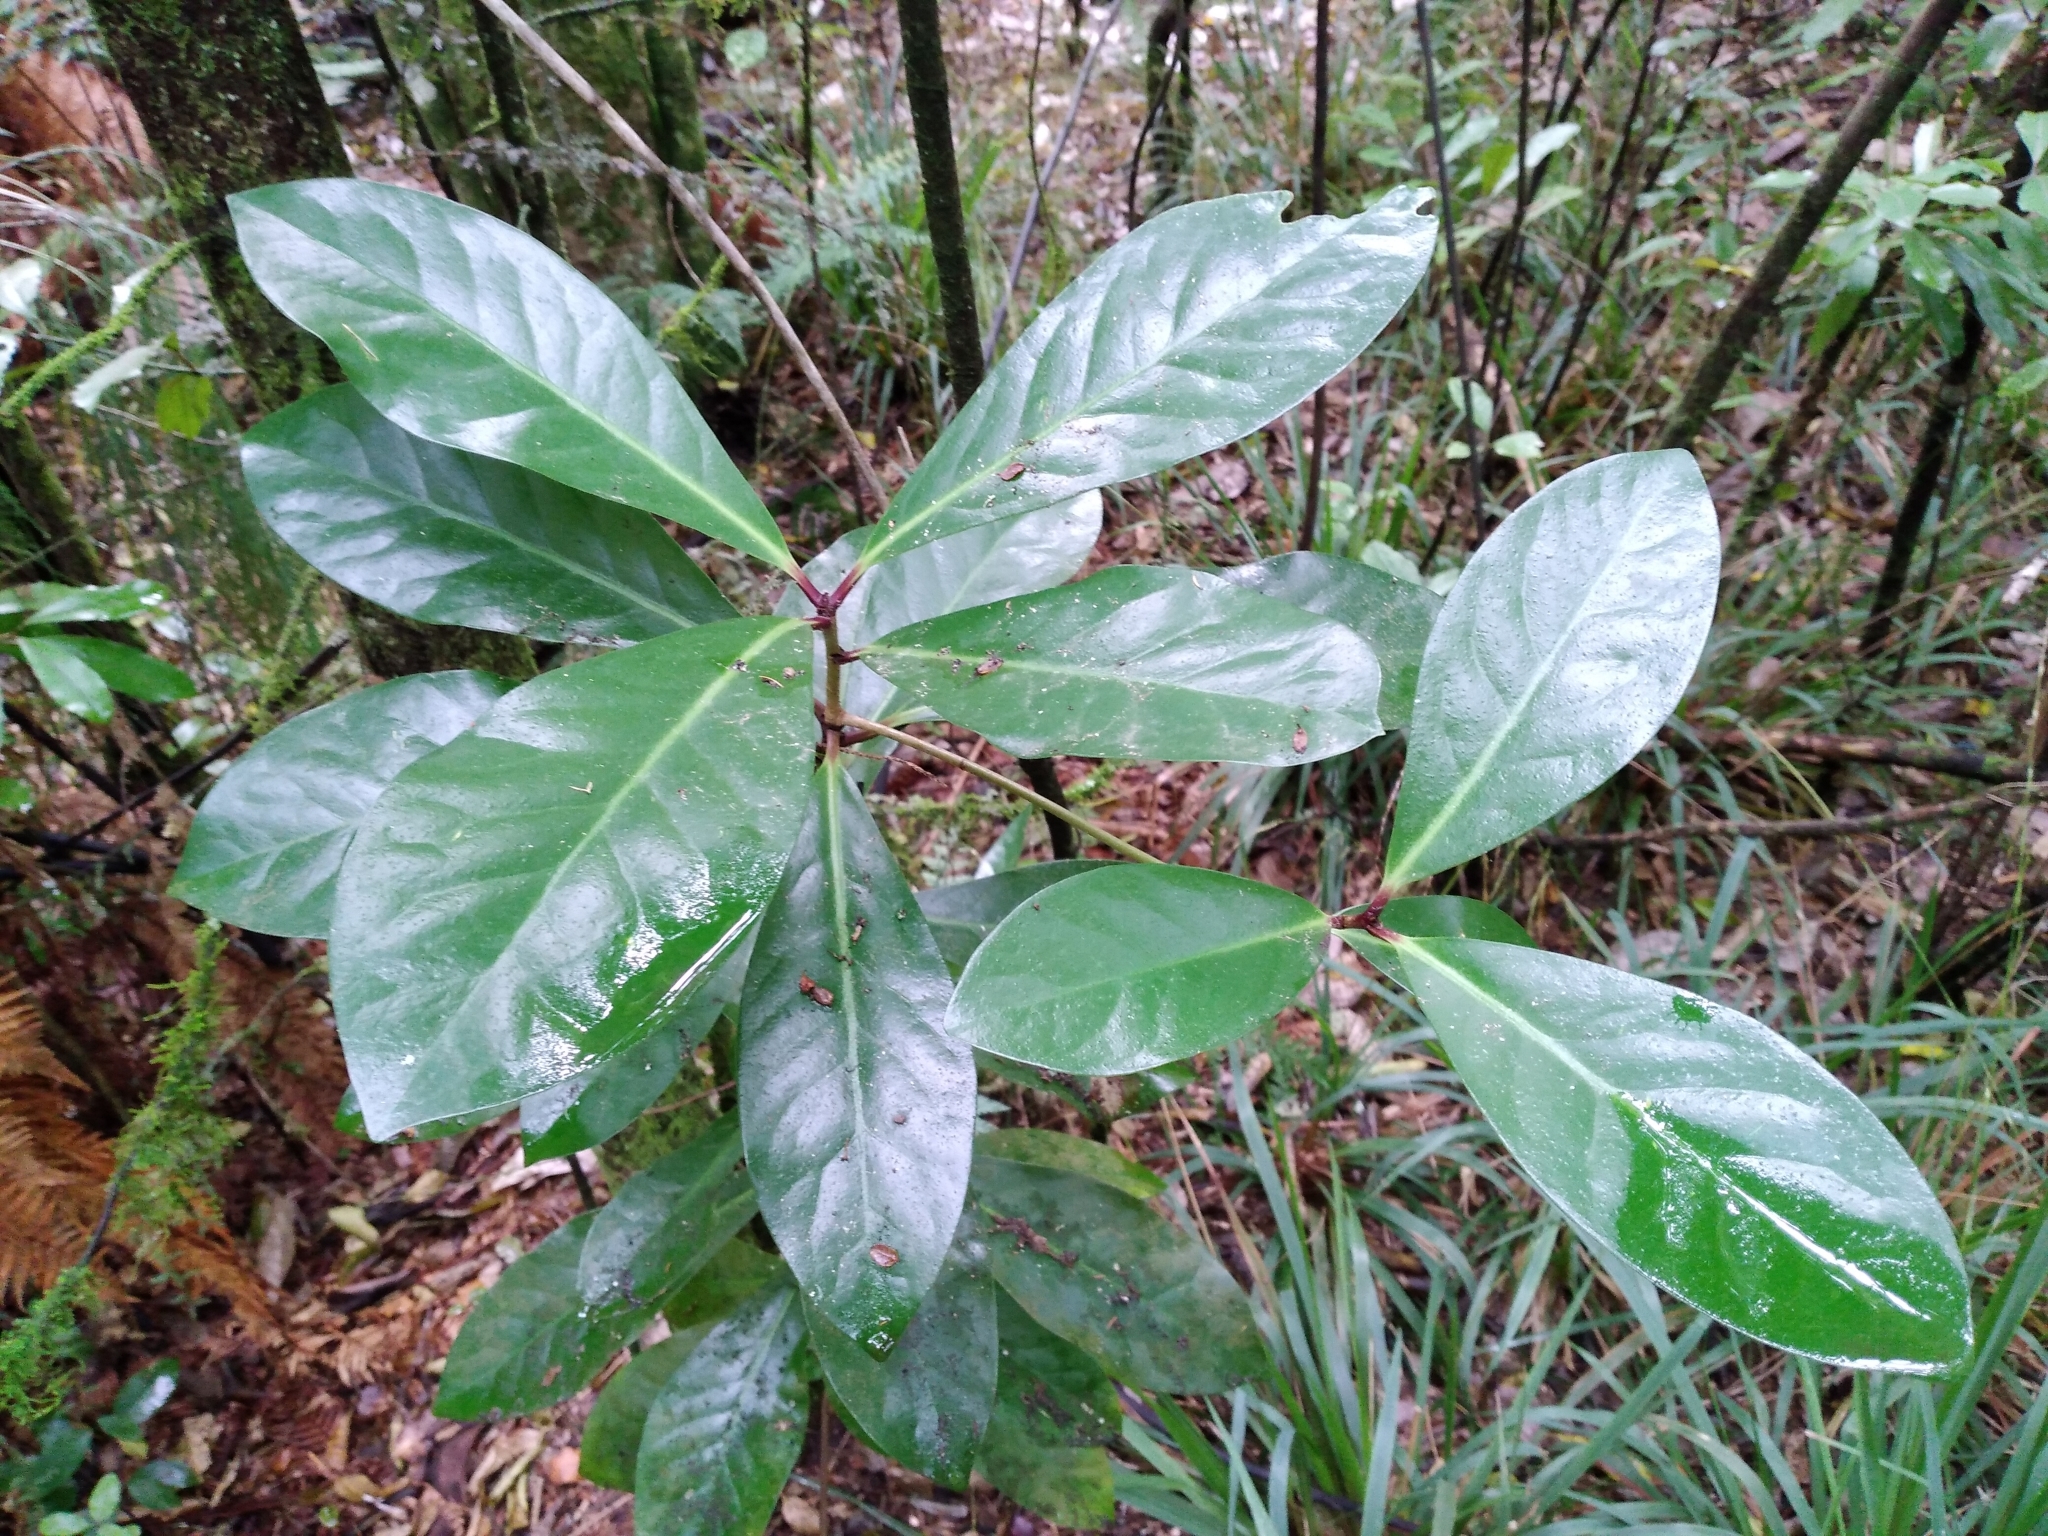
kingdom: Plantae
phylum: Tracheophyta
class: Magnoliopsida
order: Cucurbitales
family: Corynocarpaceae
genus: Corynocarpus
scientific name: Corynocarpus laevigatus
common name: New zealand laurel
